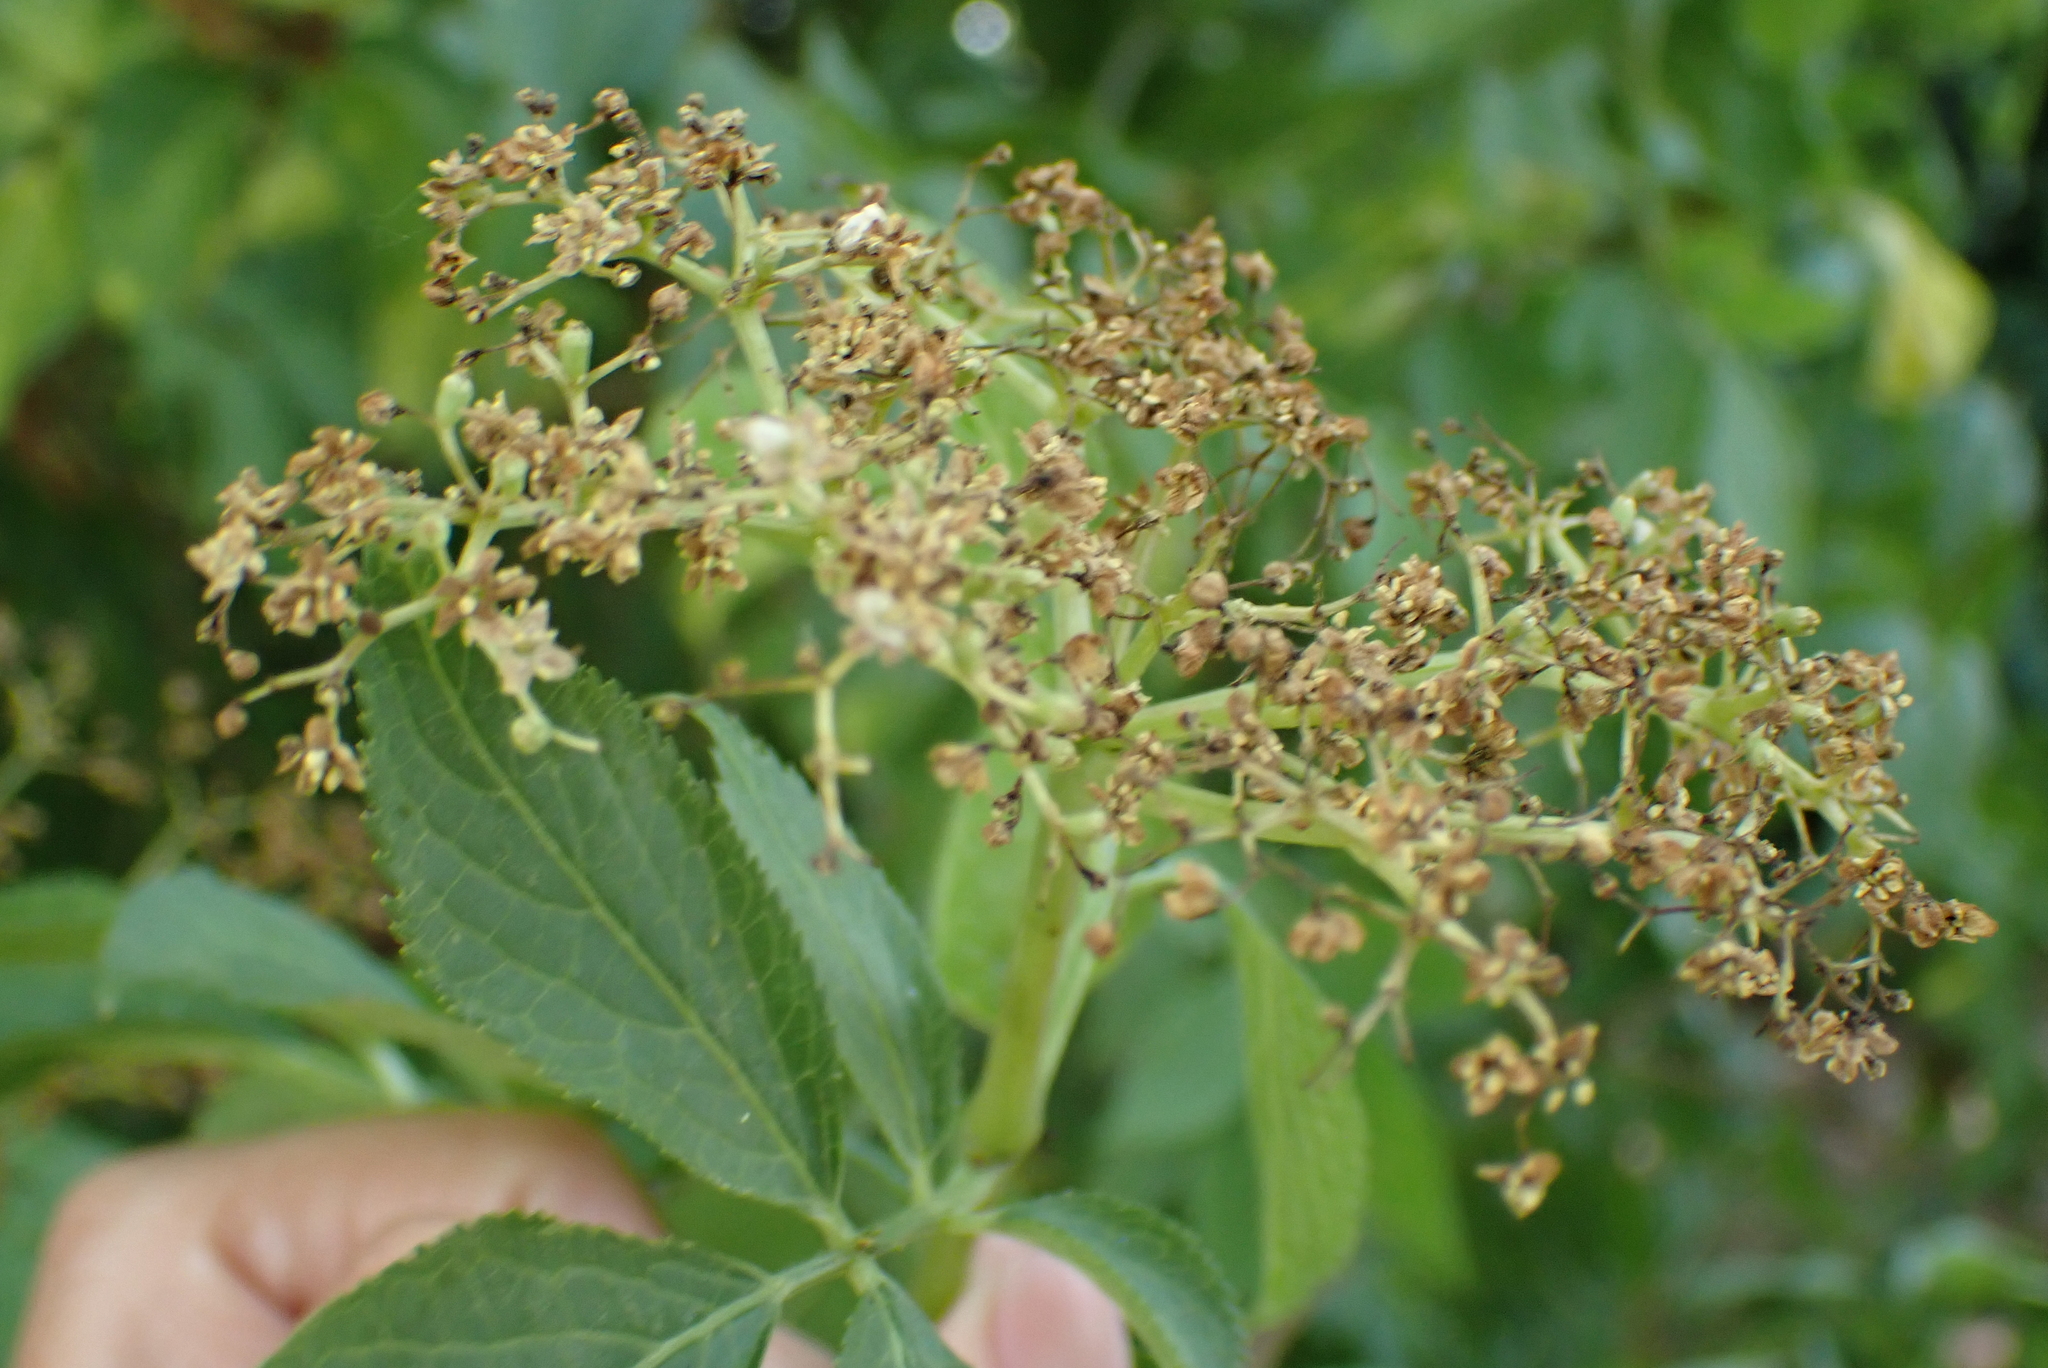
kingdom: Plantae
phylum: Tracheophyta
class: Magnoliopsida
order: Dipsacales
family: Viburnaceae
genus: Sambucus
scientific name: Sambucus nigra
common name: Elder
